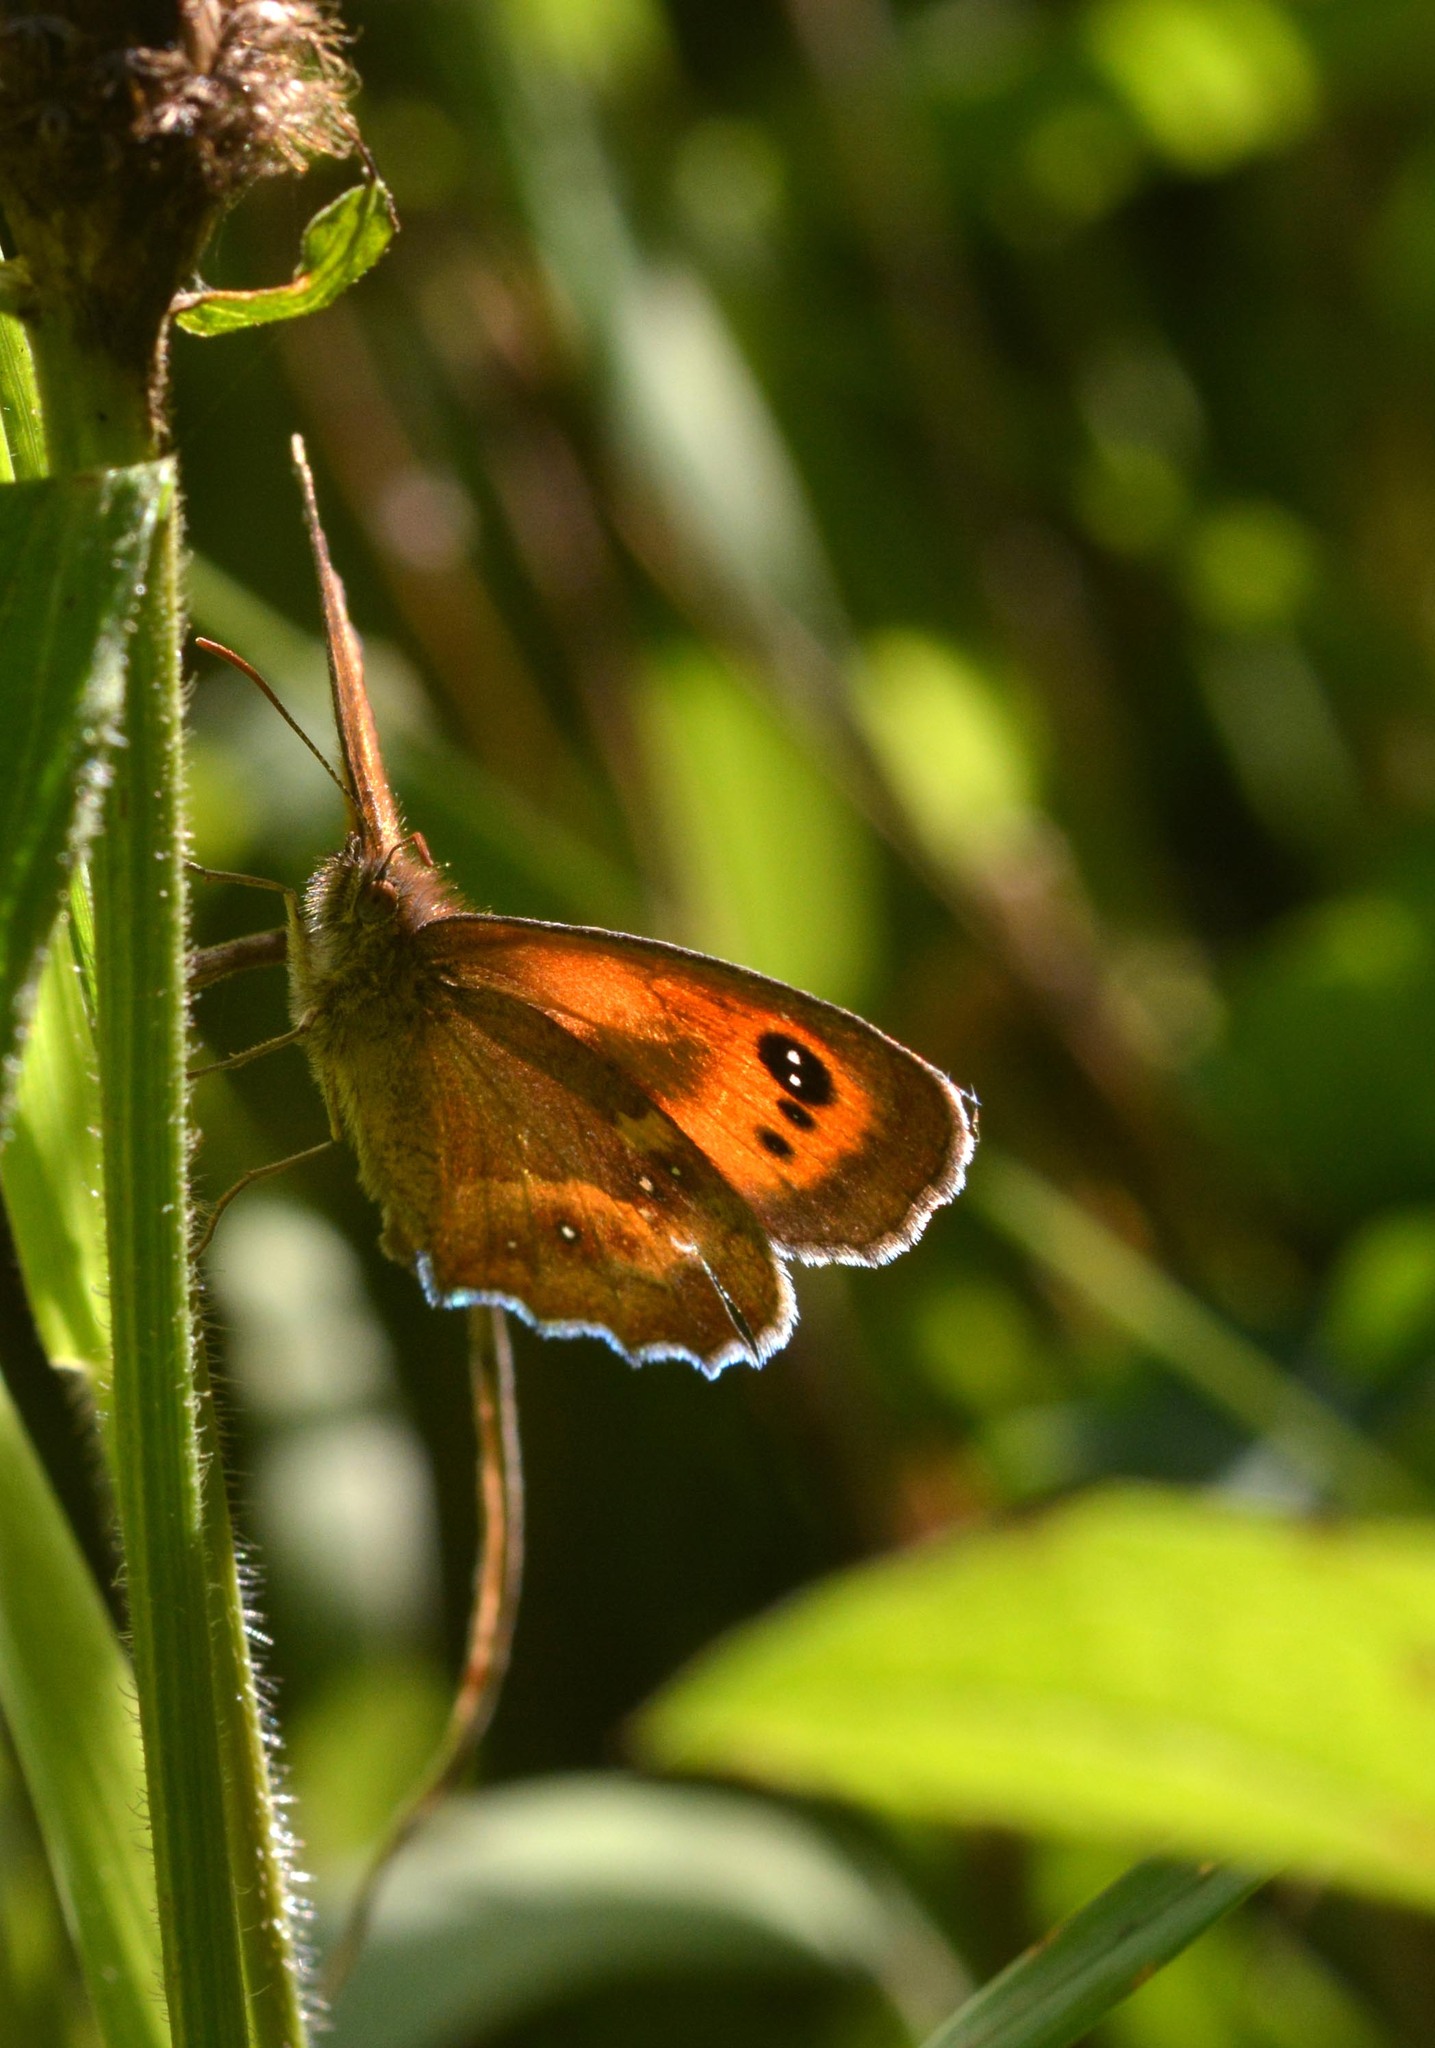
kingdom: Animalia
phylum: Arthropoda
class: Insecta
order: Lepidoptera
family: Nymphalidae
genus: Pyronia
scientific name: Pyronia tithonus
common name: Gatekeeper
